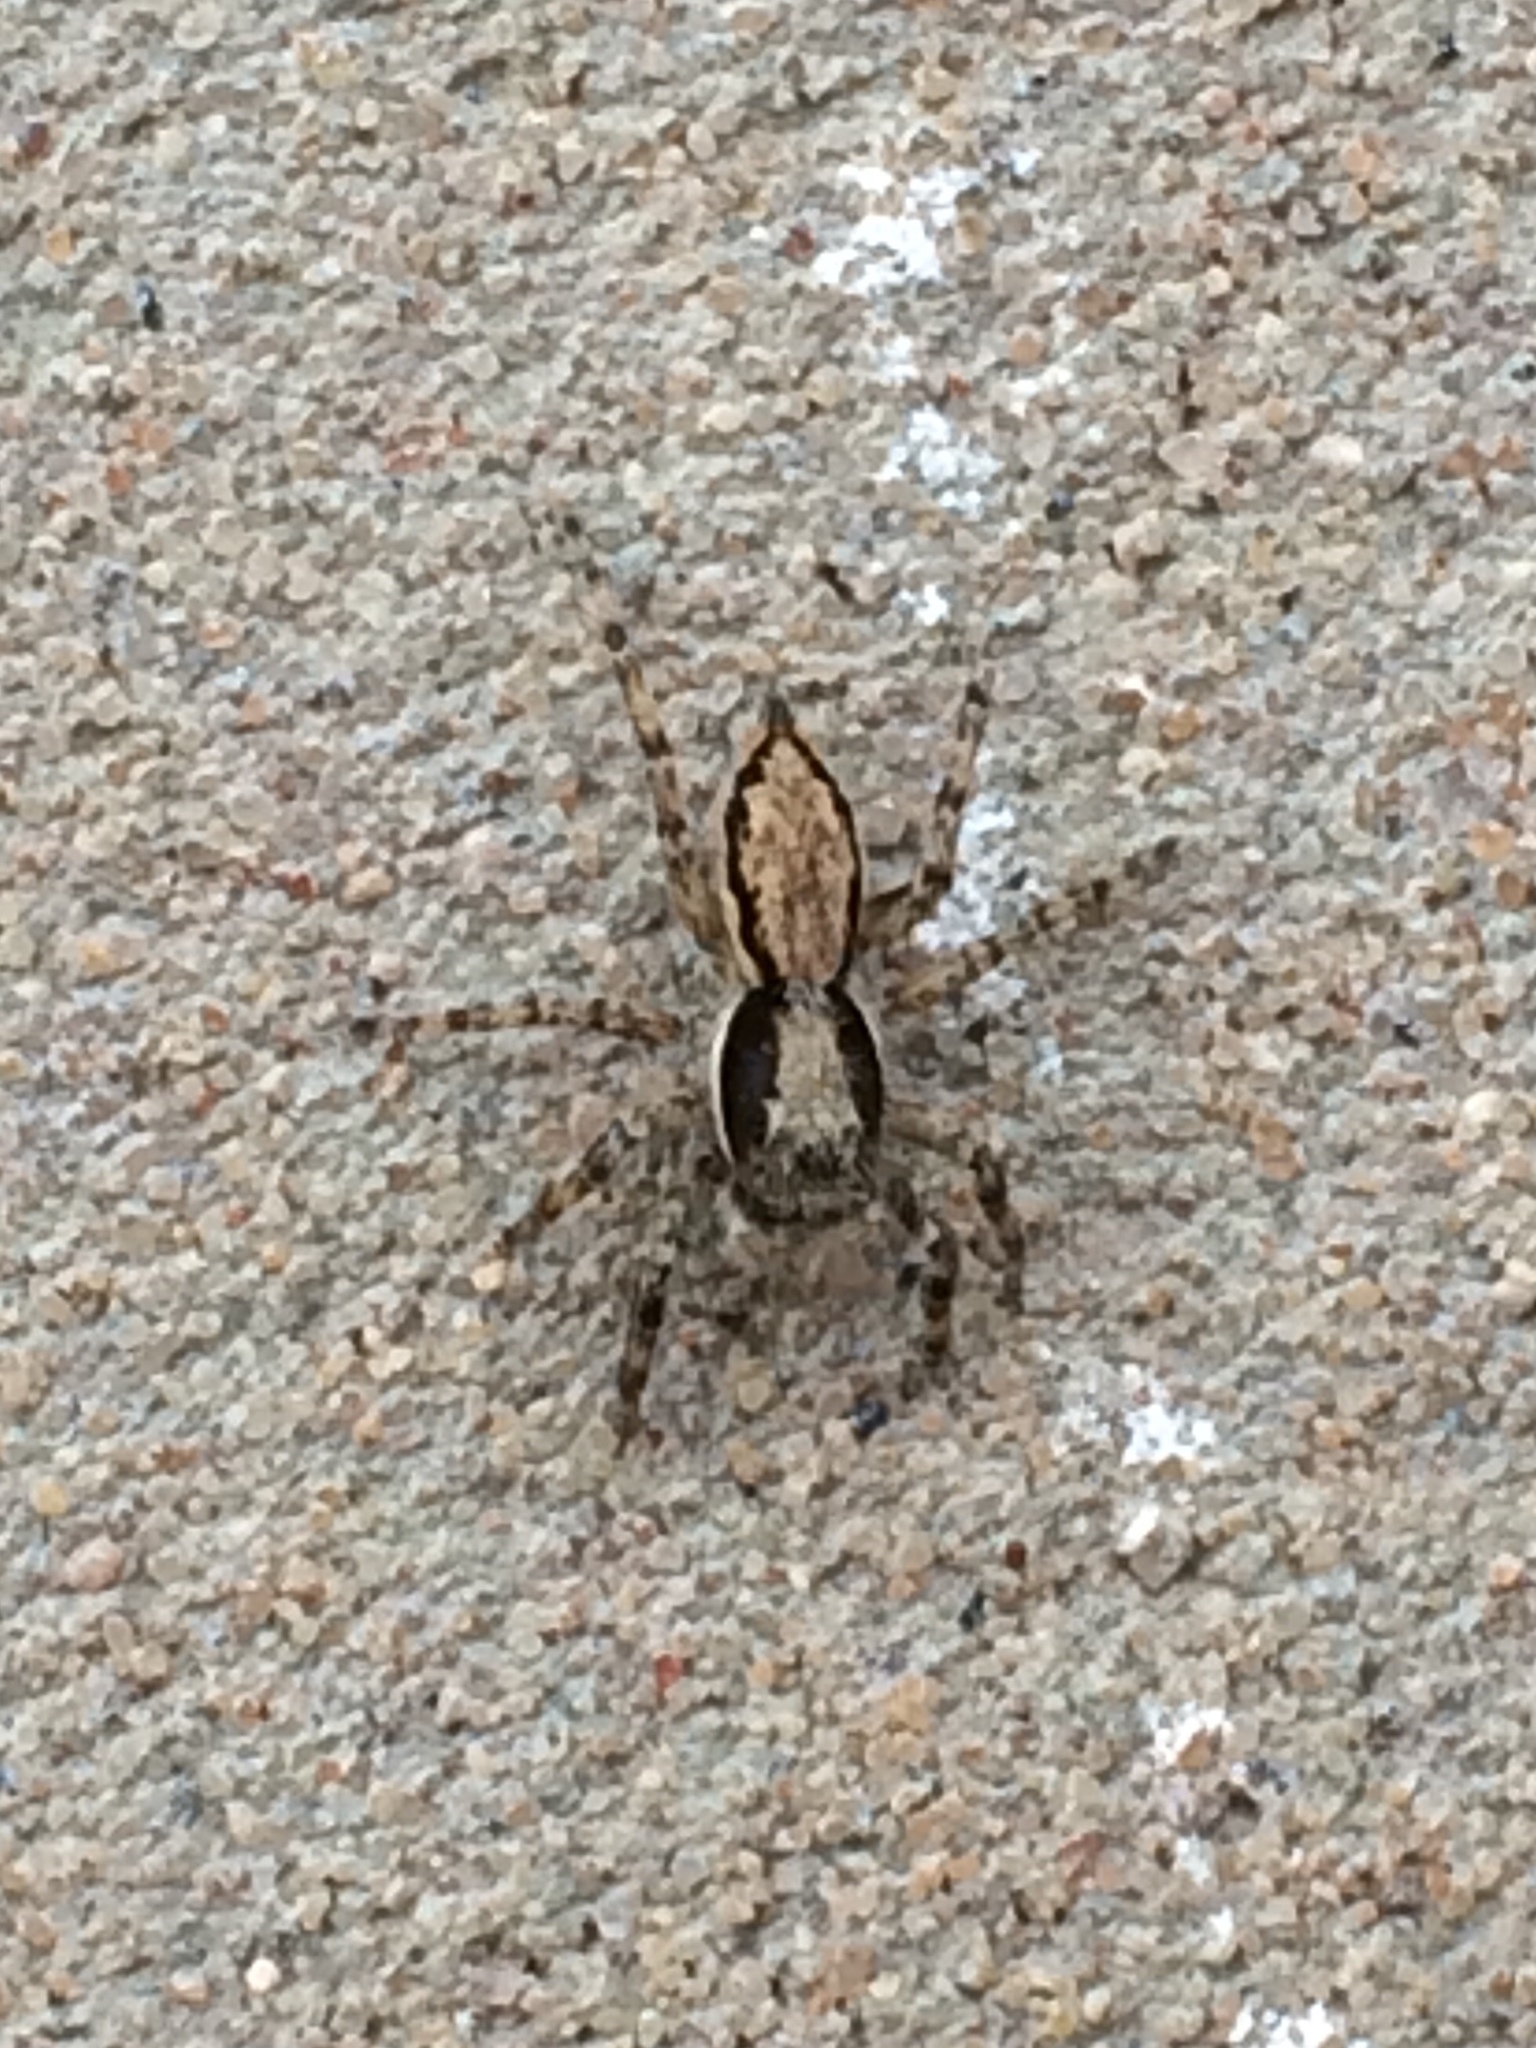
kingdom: Animalia
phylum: Arthropoda
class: Arachnida
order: Araneae
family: Salticidae
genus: Menemerus
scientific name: Menemerus bivittatus
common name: Gray wall jumper
